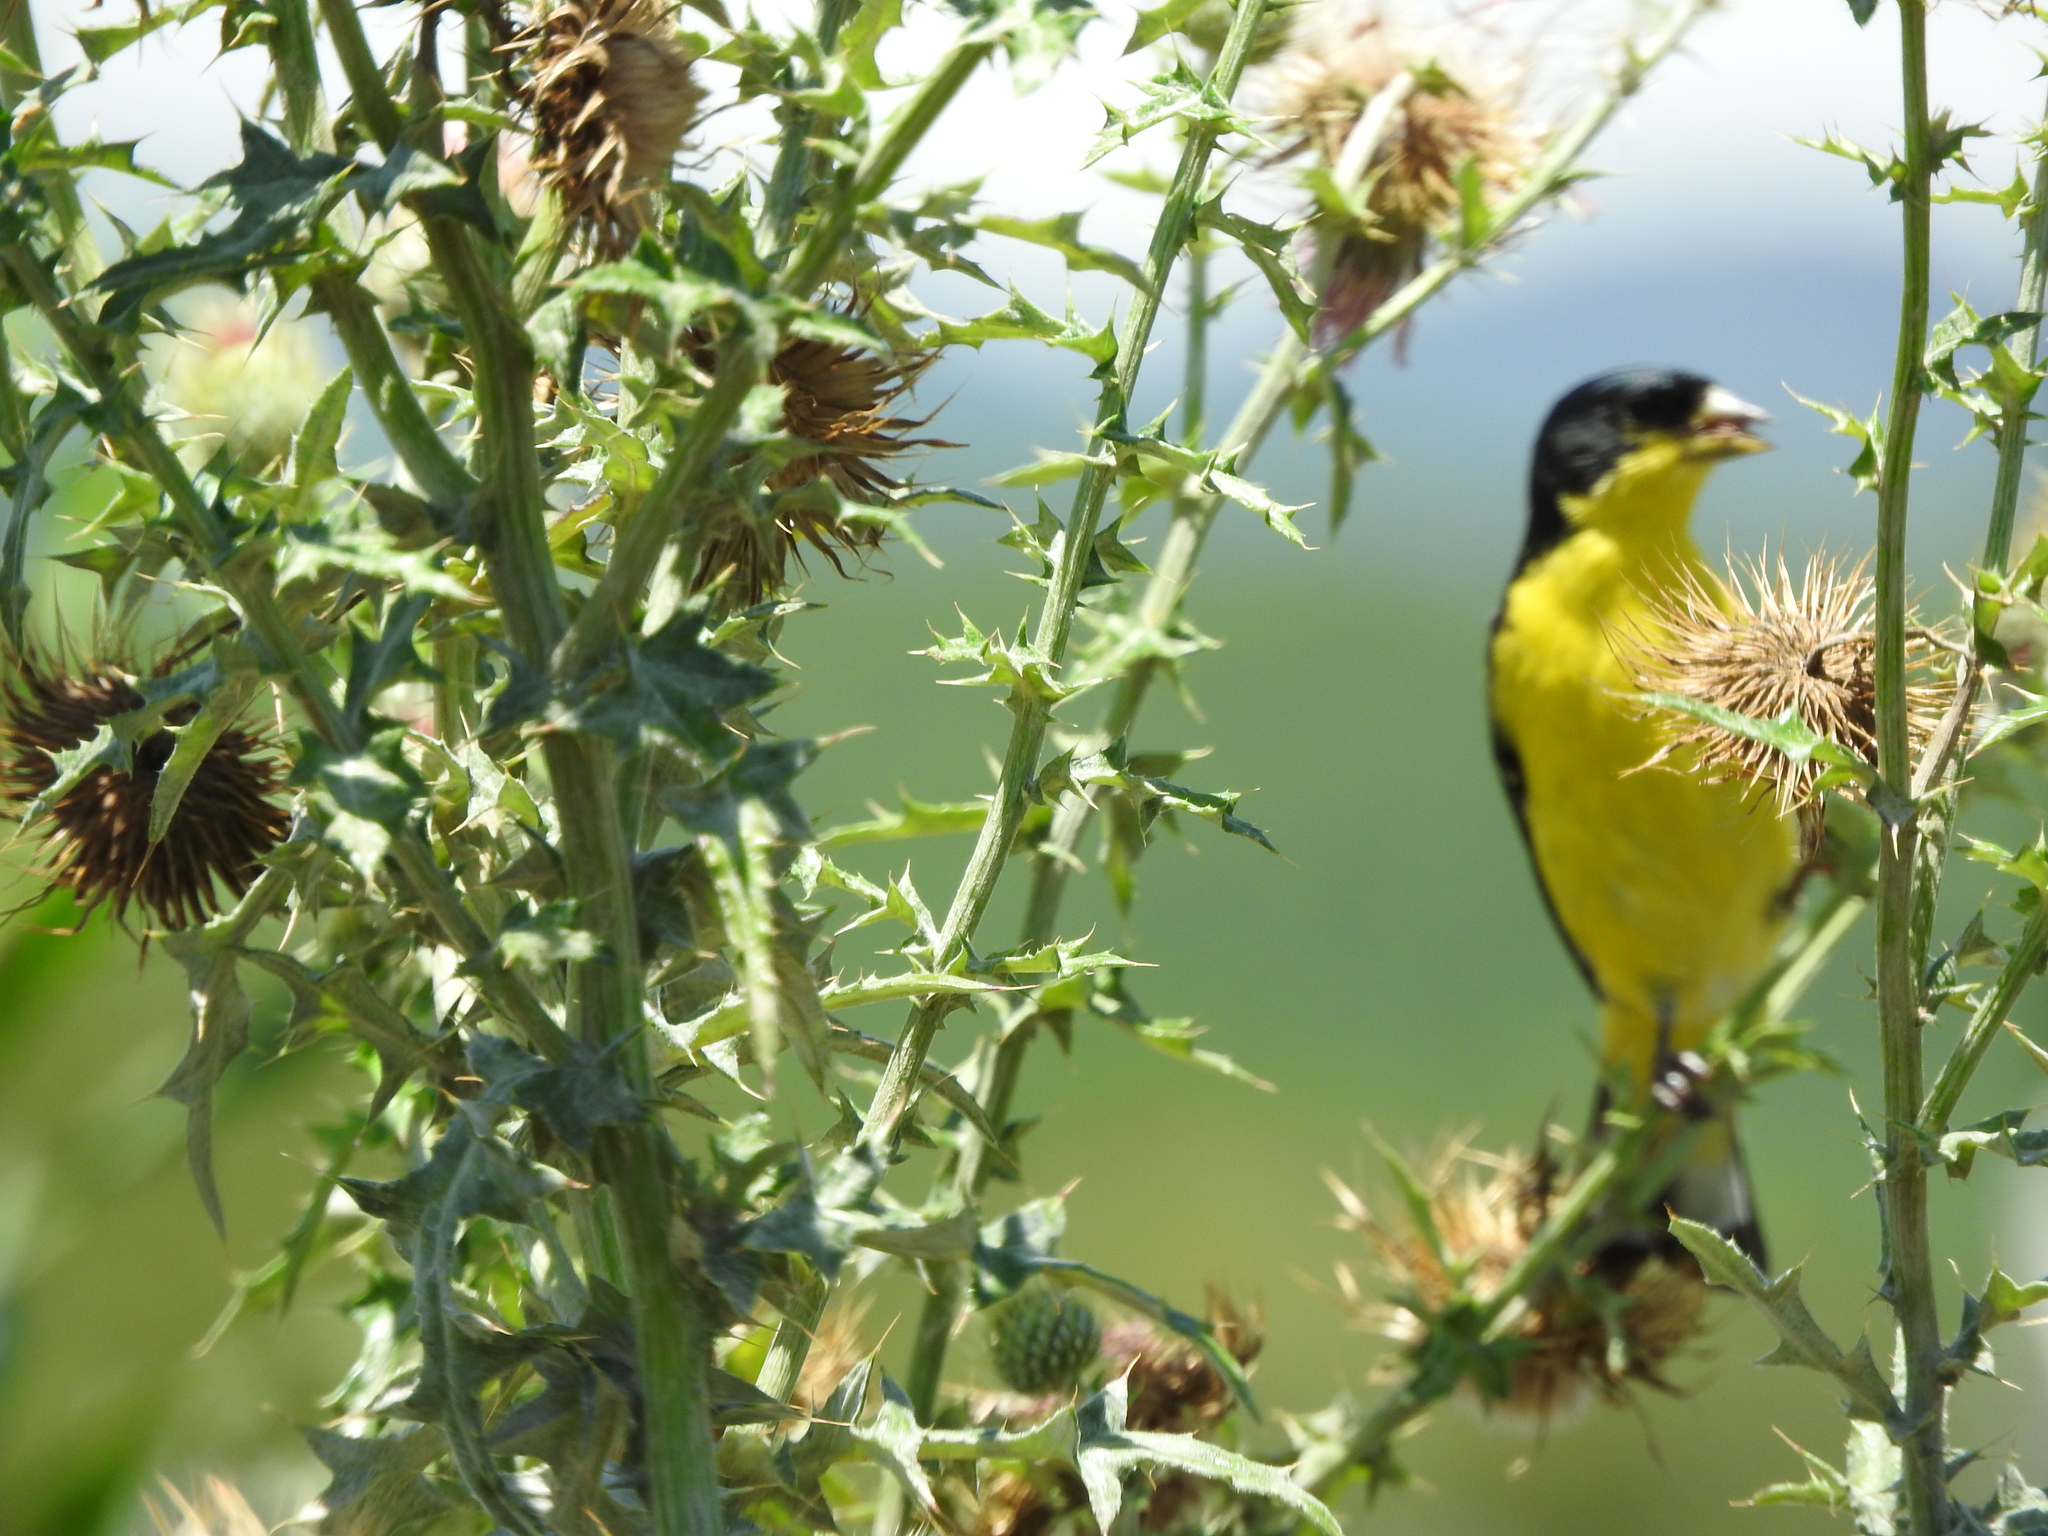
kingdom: Animalia
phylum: Chordata
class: Aves
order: Passeriformes
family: Fringillidae
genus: Spinus
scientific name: Spinus psaltria
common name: Lesser goldfinch
